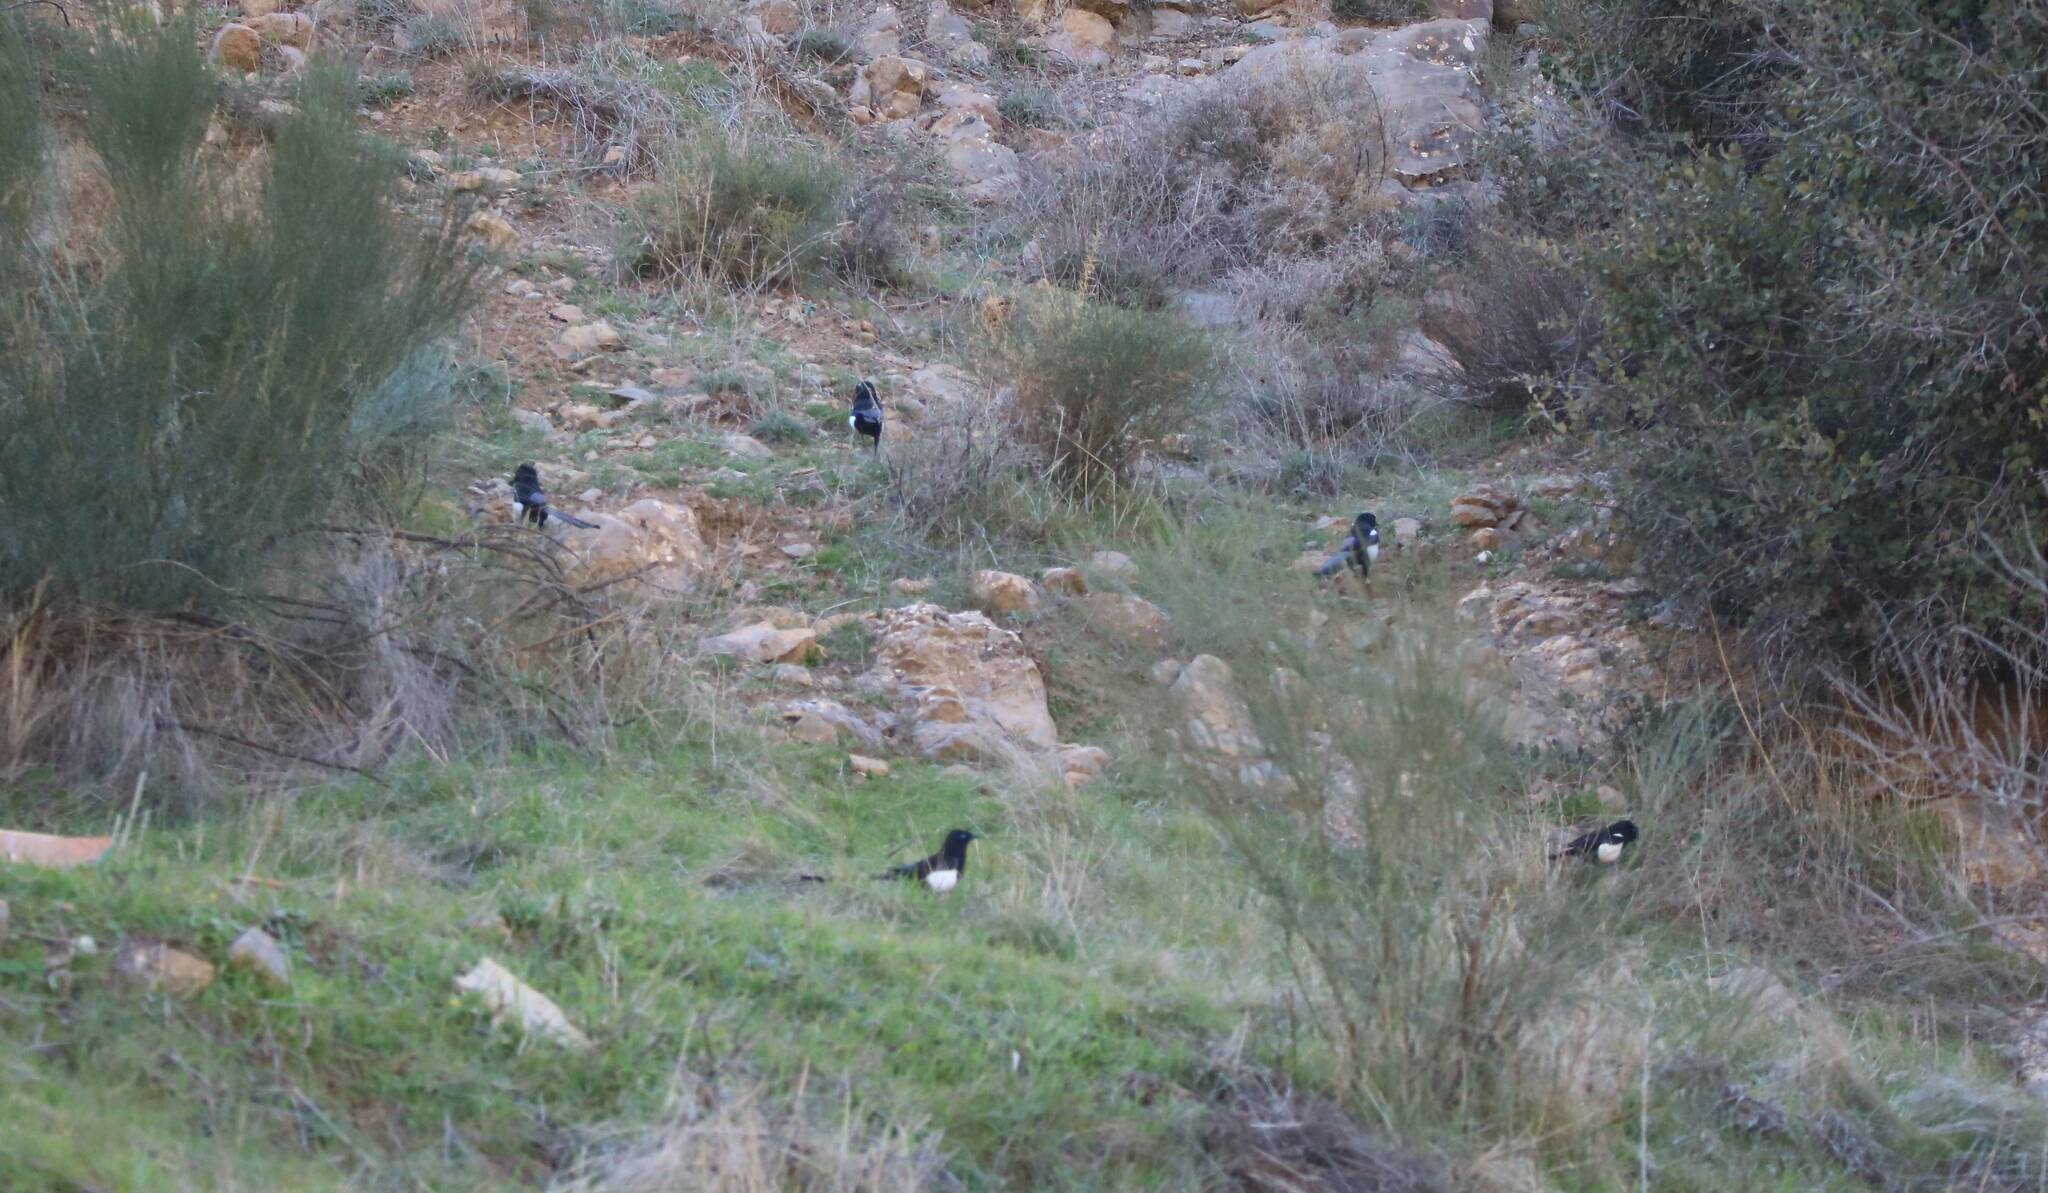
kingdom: Animalia
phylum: Chordata
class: Aves
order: Passeriformes
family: Corvidae
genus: Pica
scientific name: Pica mauritanica
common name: Maghreb magpie
